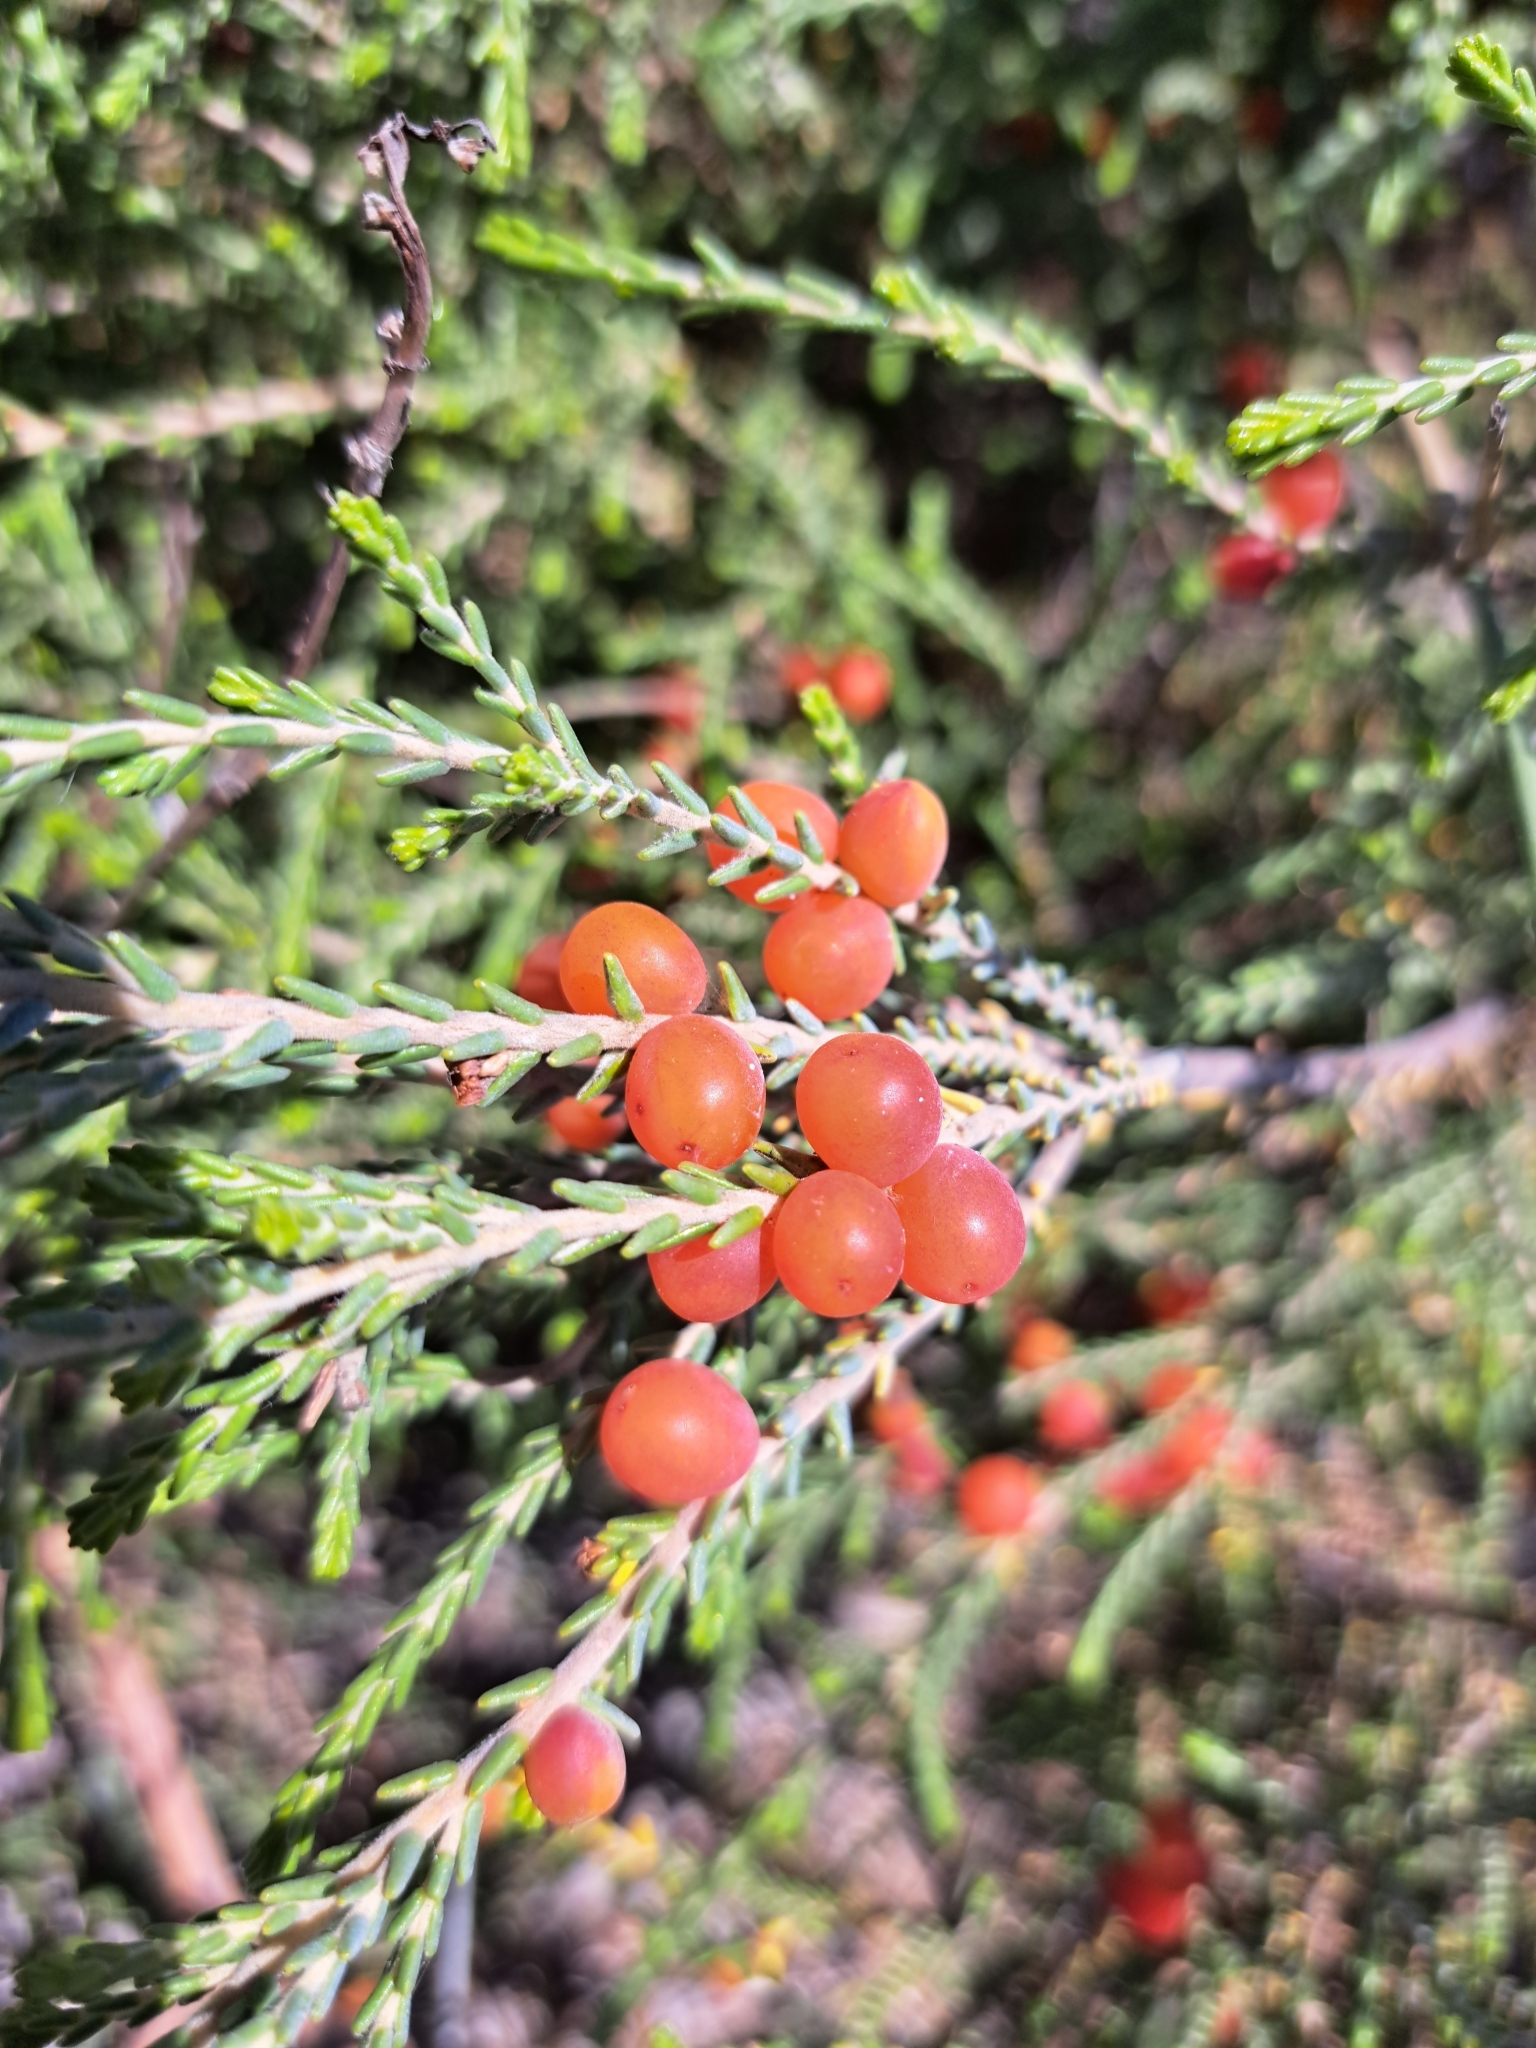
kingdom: Plantae
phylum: Tracheophyta
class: Magnoliopsida
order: Malvales
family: Thymelaeaceae
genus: Passerina
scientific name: Passerina ericoides
